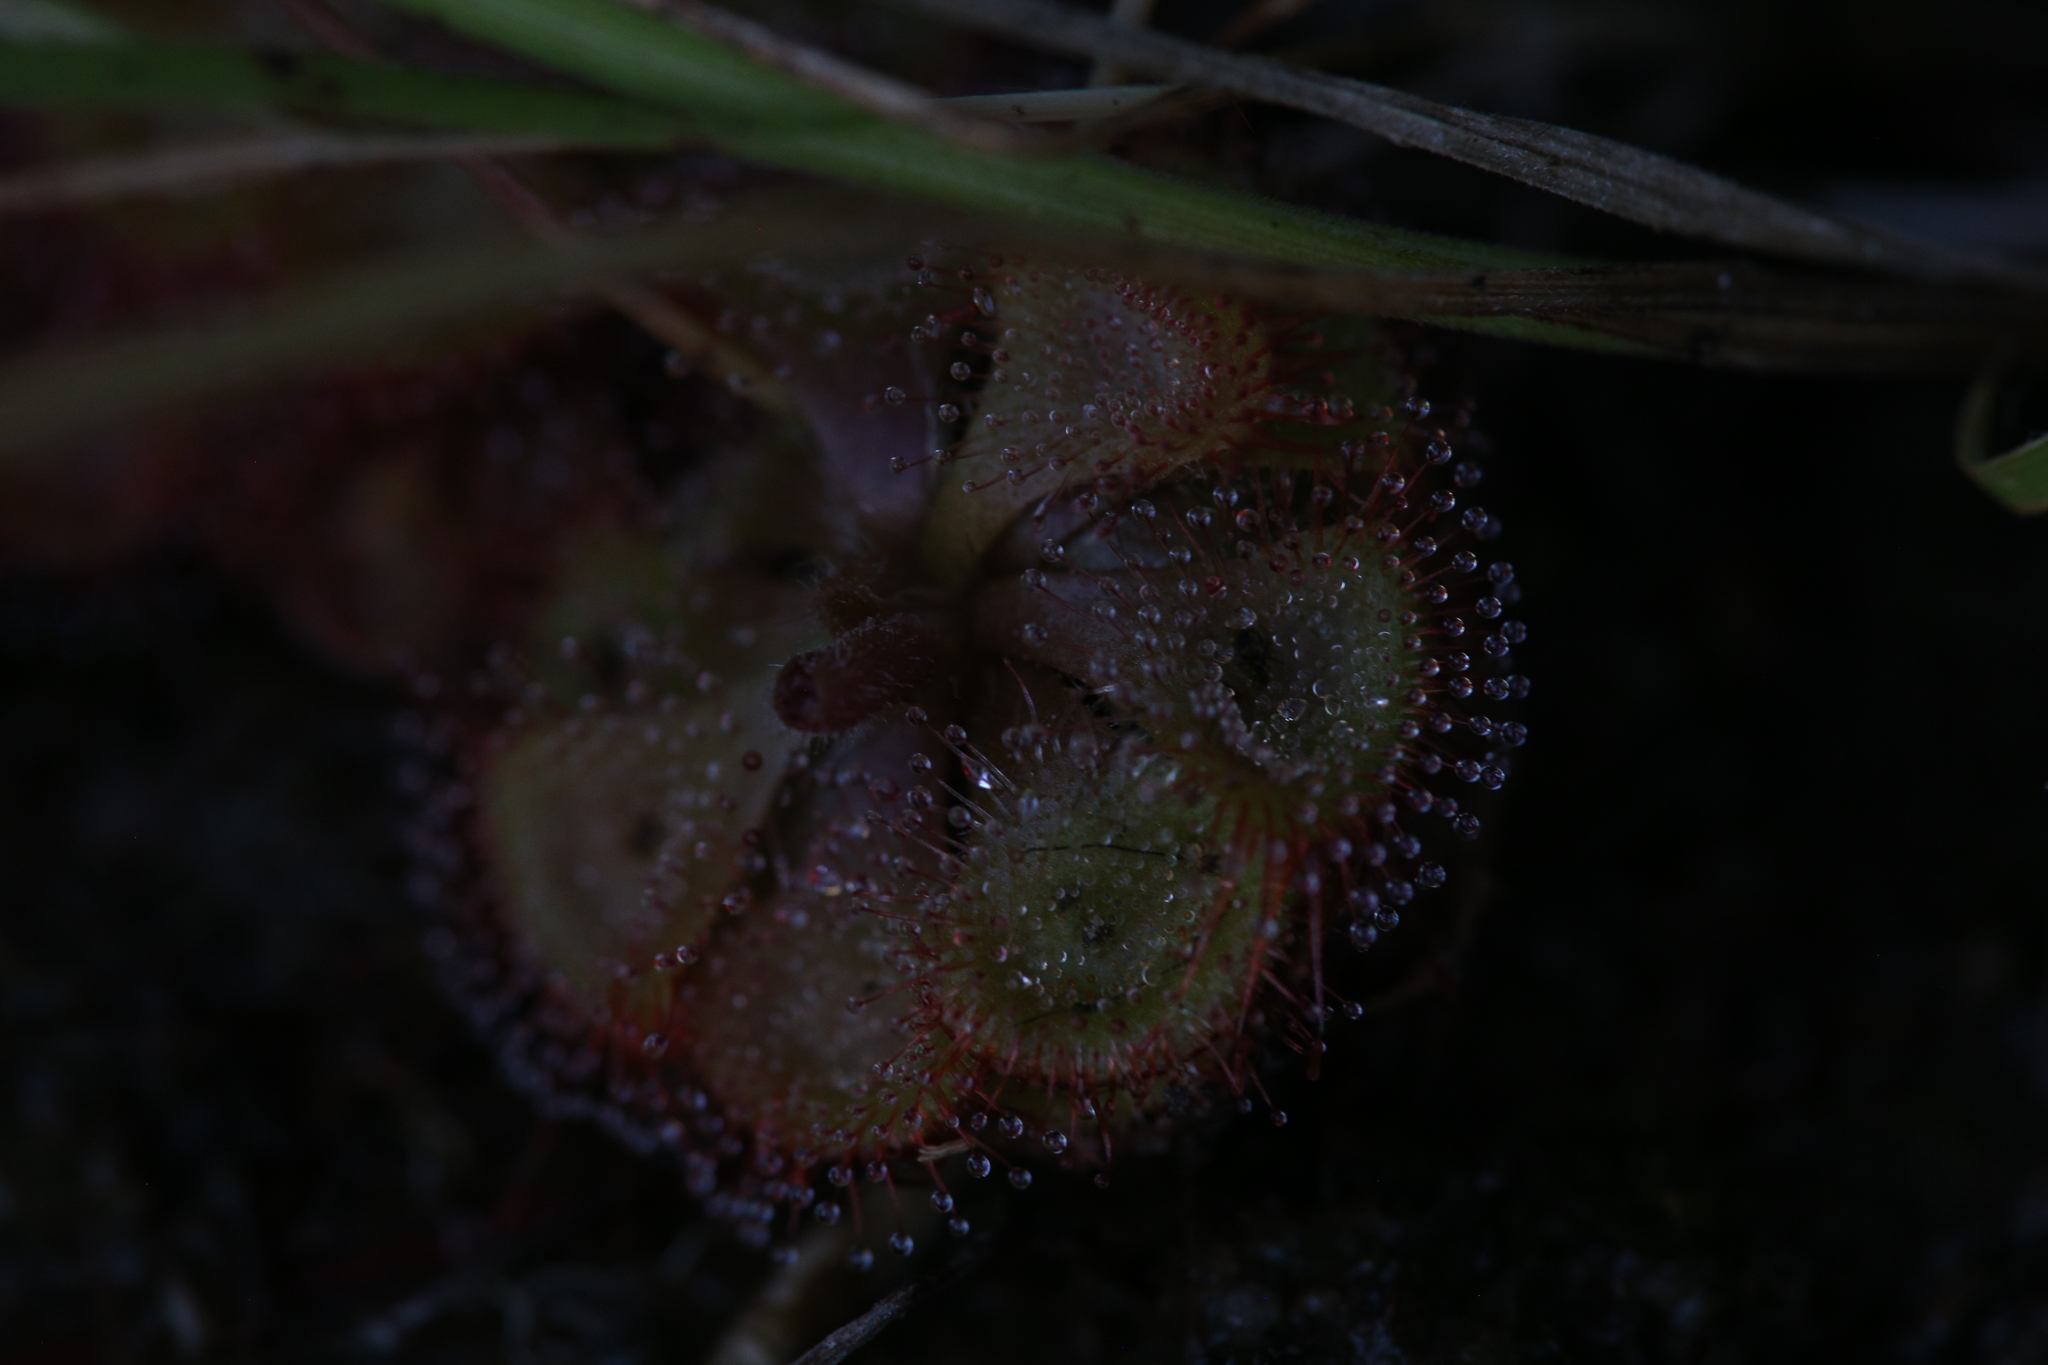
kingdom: Plantae
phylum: Tracheophyta
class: Magnoliopsida
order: Caryophyllales
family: Droseraceae
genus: Drosera
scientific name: Drosera spatulata
